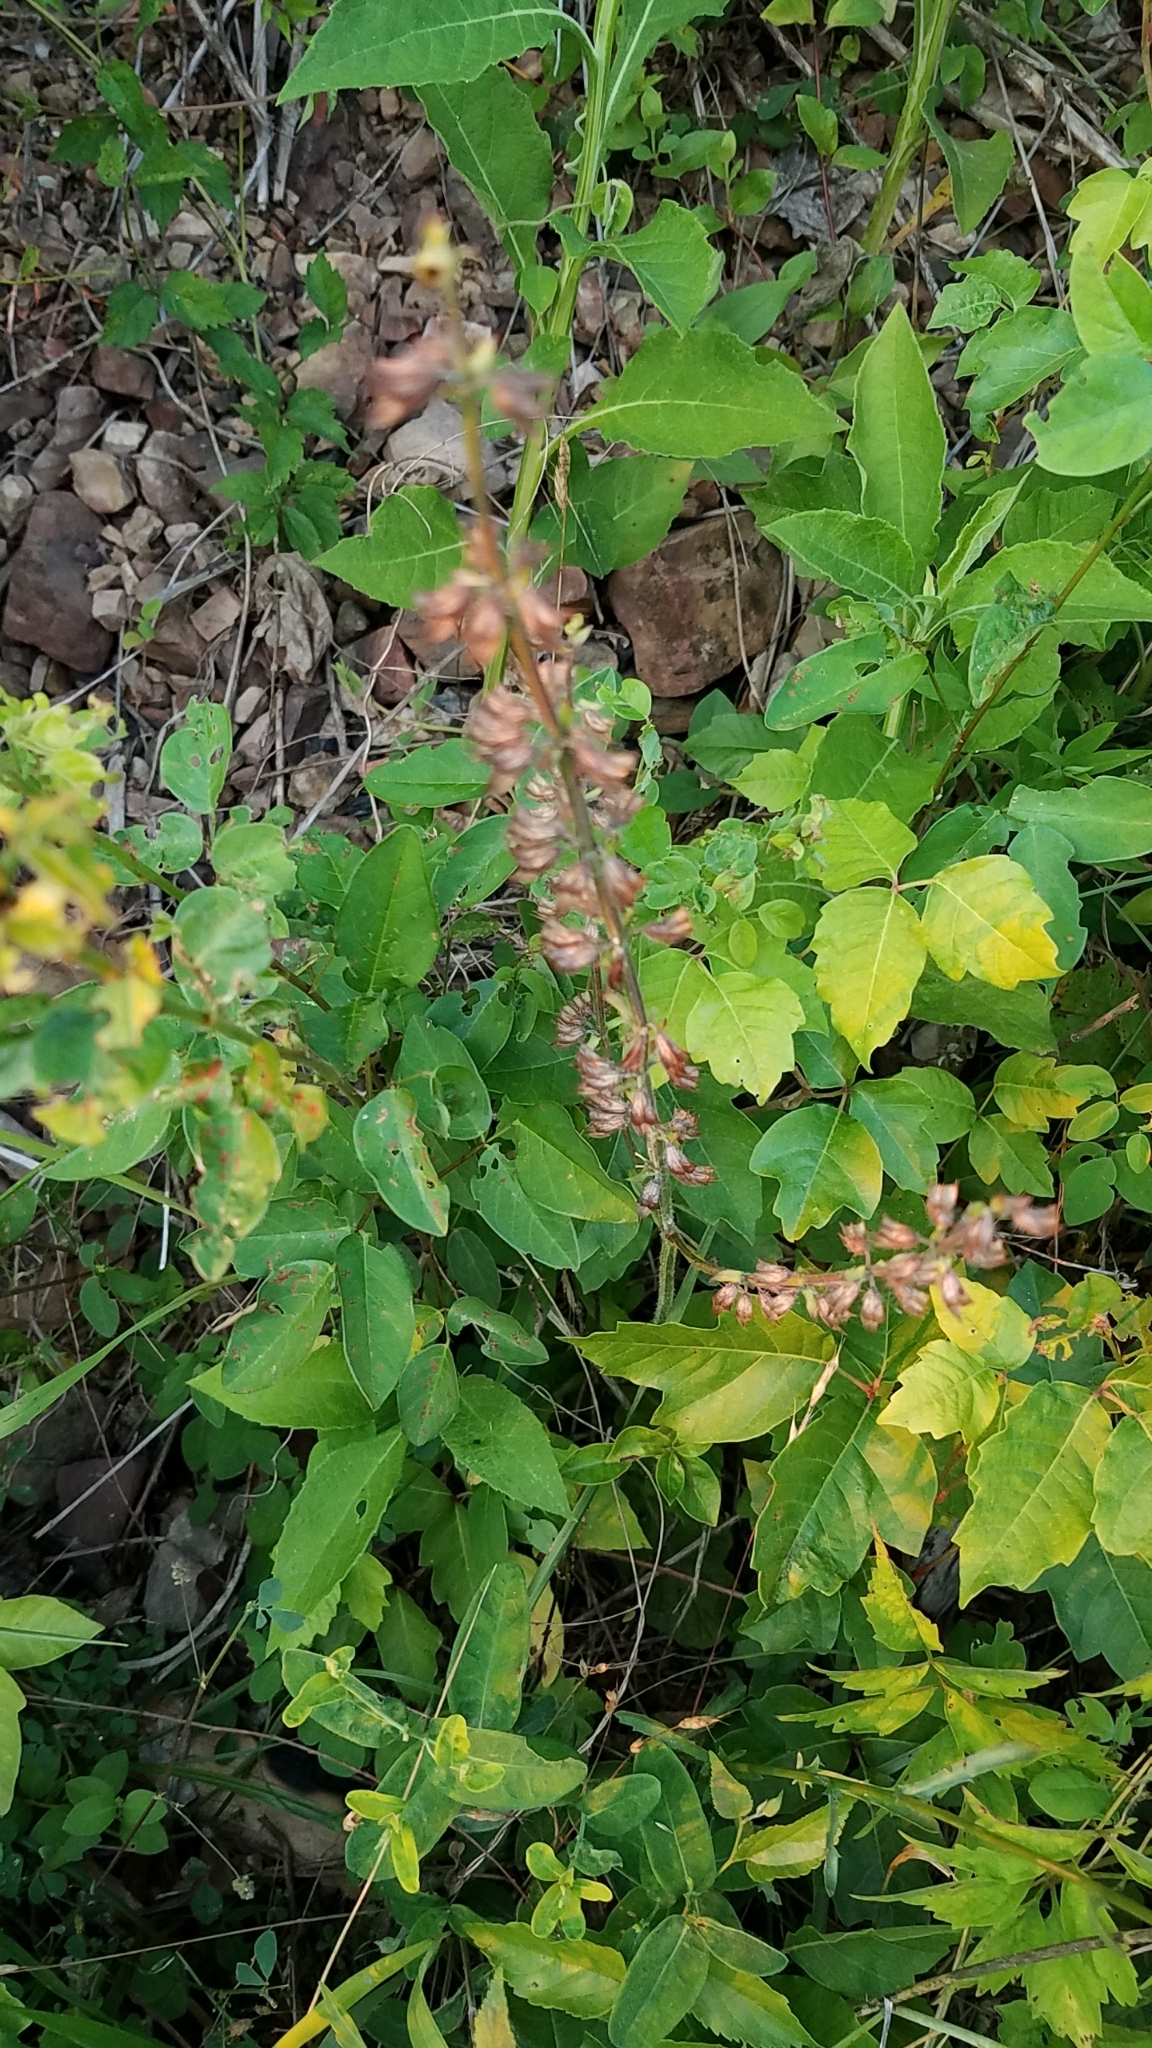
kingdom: Plantae
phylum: Tracheophyta
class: Magnoliopsida
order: Lamiales
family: Lamiaceae
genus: Salvia
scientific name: Salvia lyrata
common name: Cancerweed
